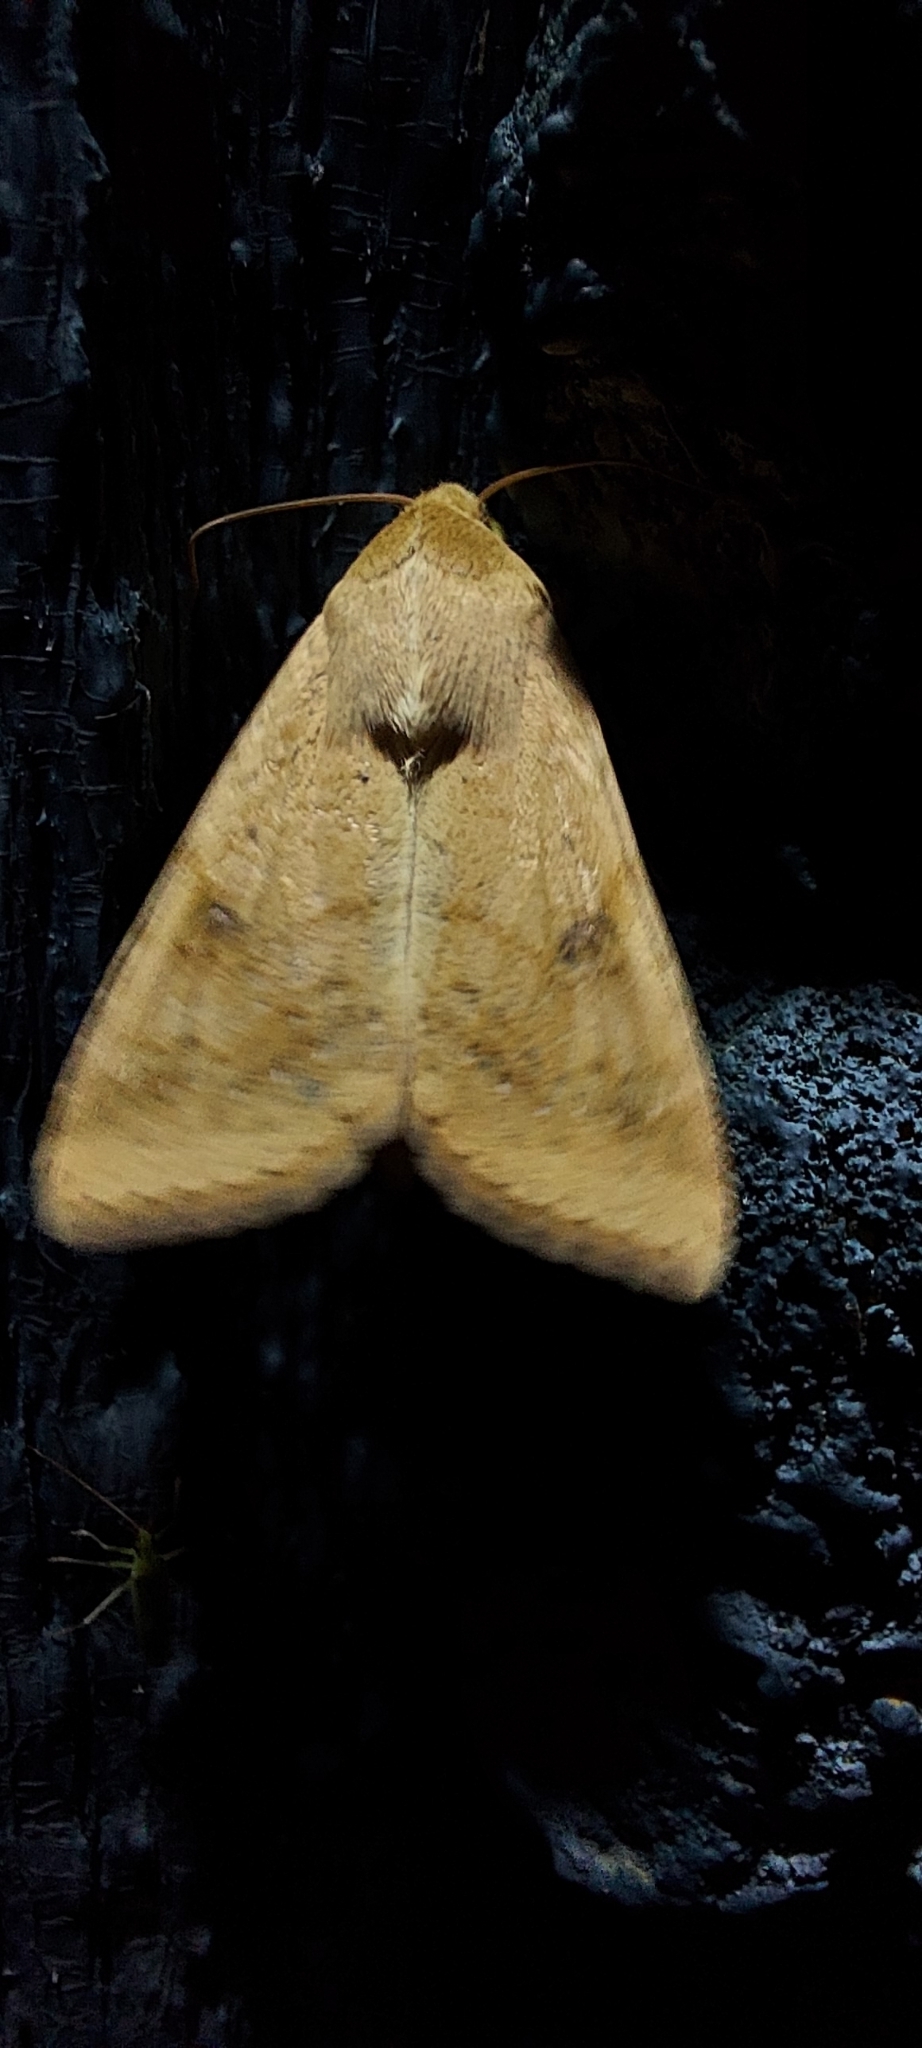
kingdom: Animalia
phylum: Arthropoda
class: Insecta
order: Lepidoptera
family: Noctuidae
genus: Helicoverpa
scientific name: Helicoverpa armigera
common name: Cotton bollworm
